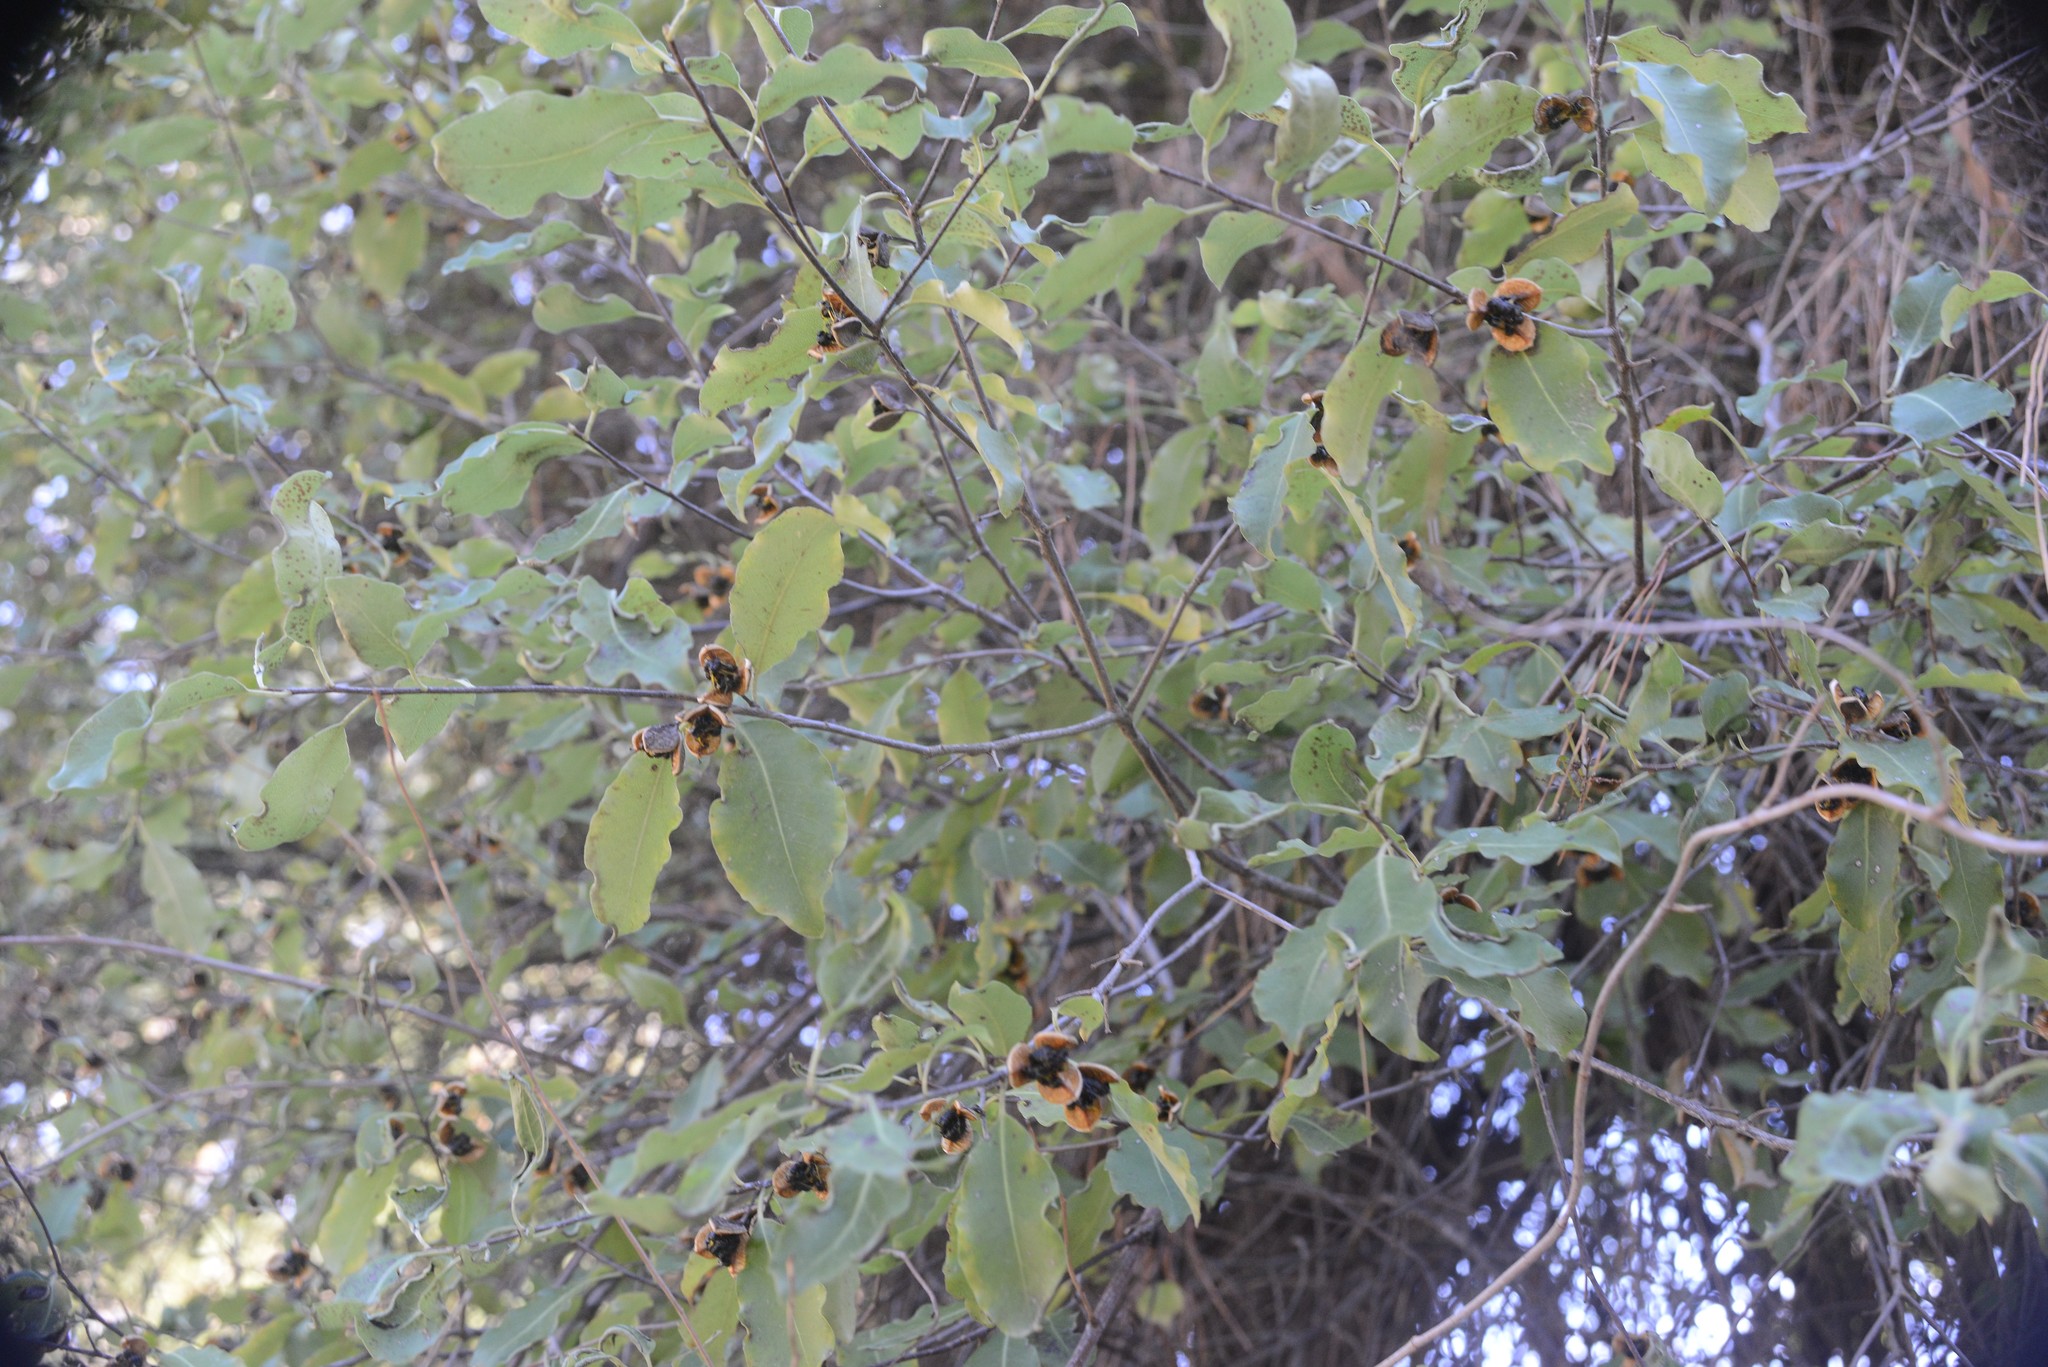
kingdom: Plantae
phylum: Tracheophyta
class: Magnoliopsida
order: Apiales
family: Pittosporaceae
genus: Pittosporum
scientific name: Pittosporum tenuifolium
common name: Kohuhu
